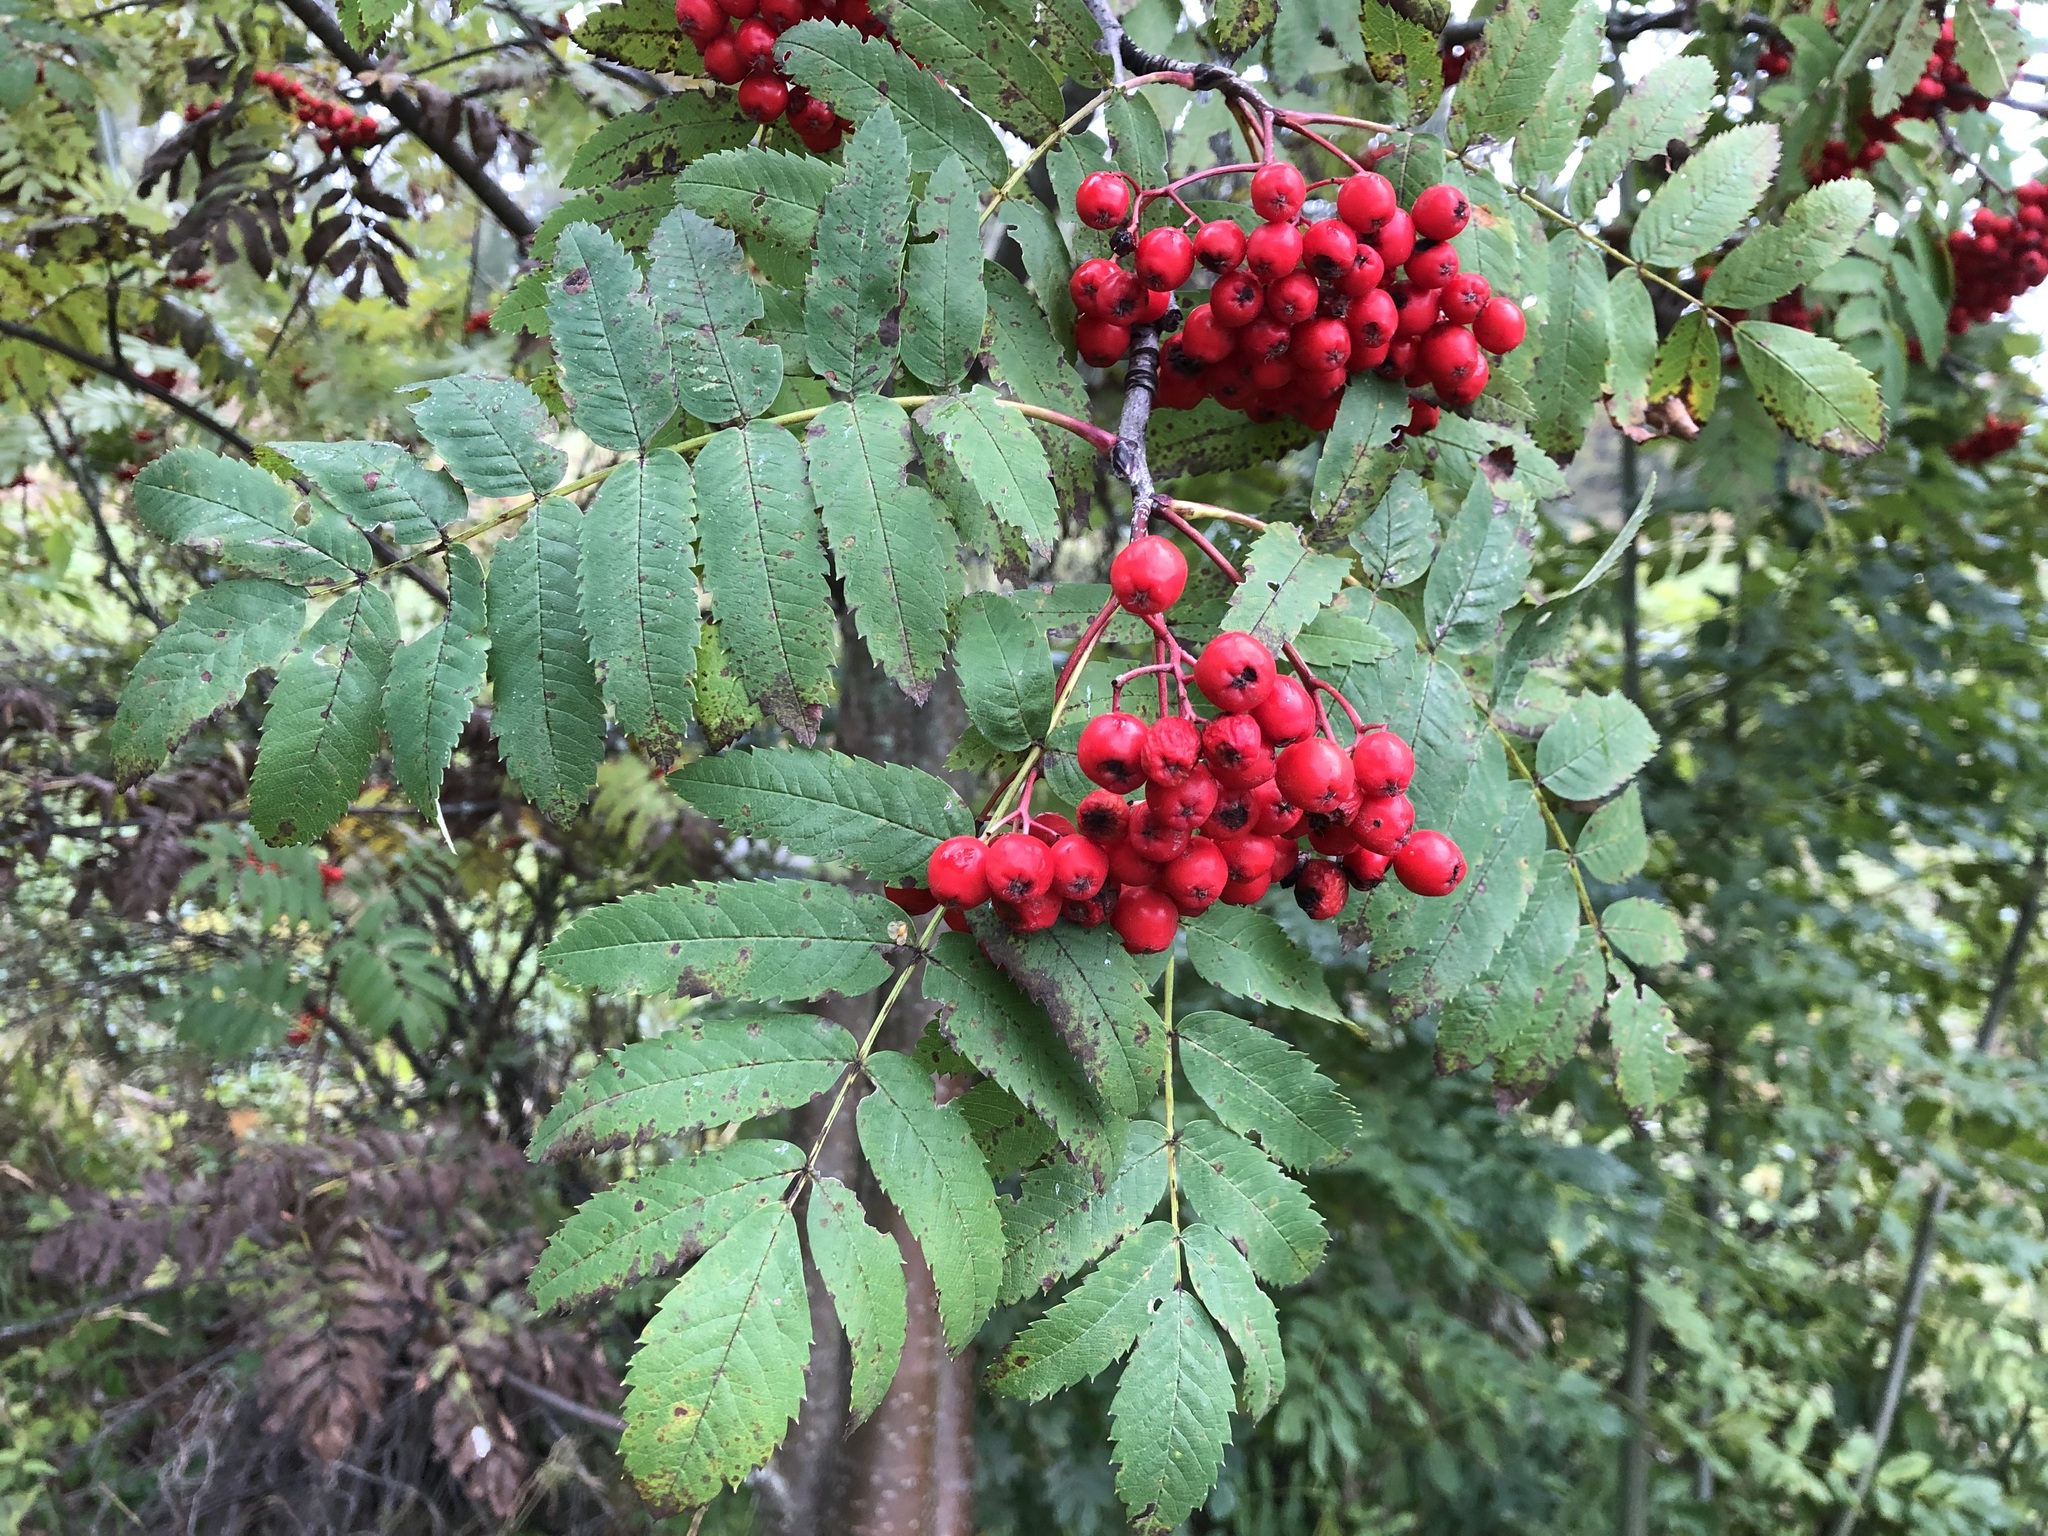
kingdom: Plantae
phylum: Tracheophyta
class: Magnoliopsida
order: Rosales
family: Rosaceae
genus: Sorbus
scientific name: Sorbus aucuparia
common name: Rowan
